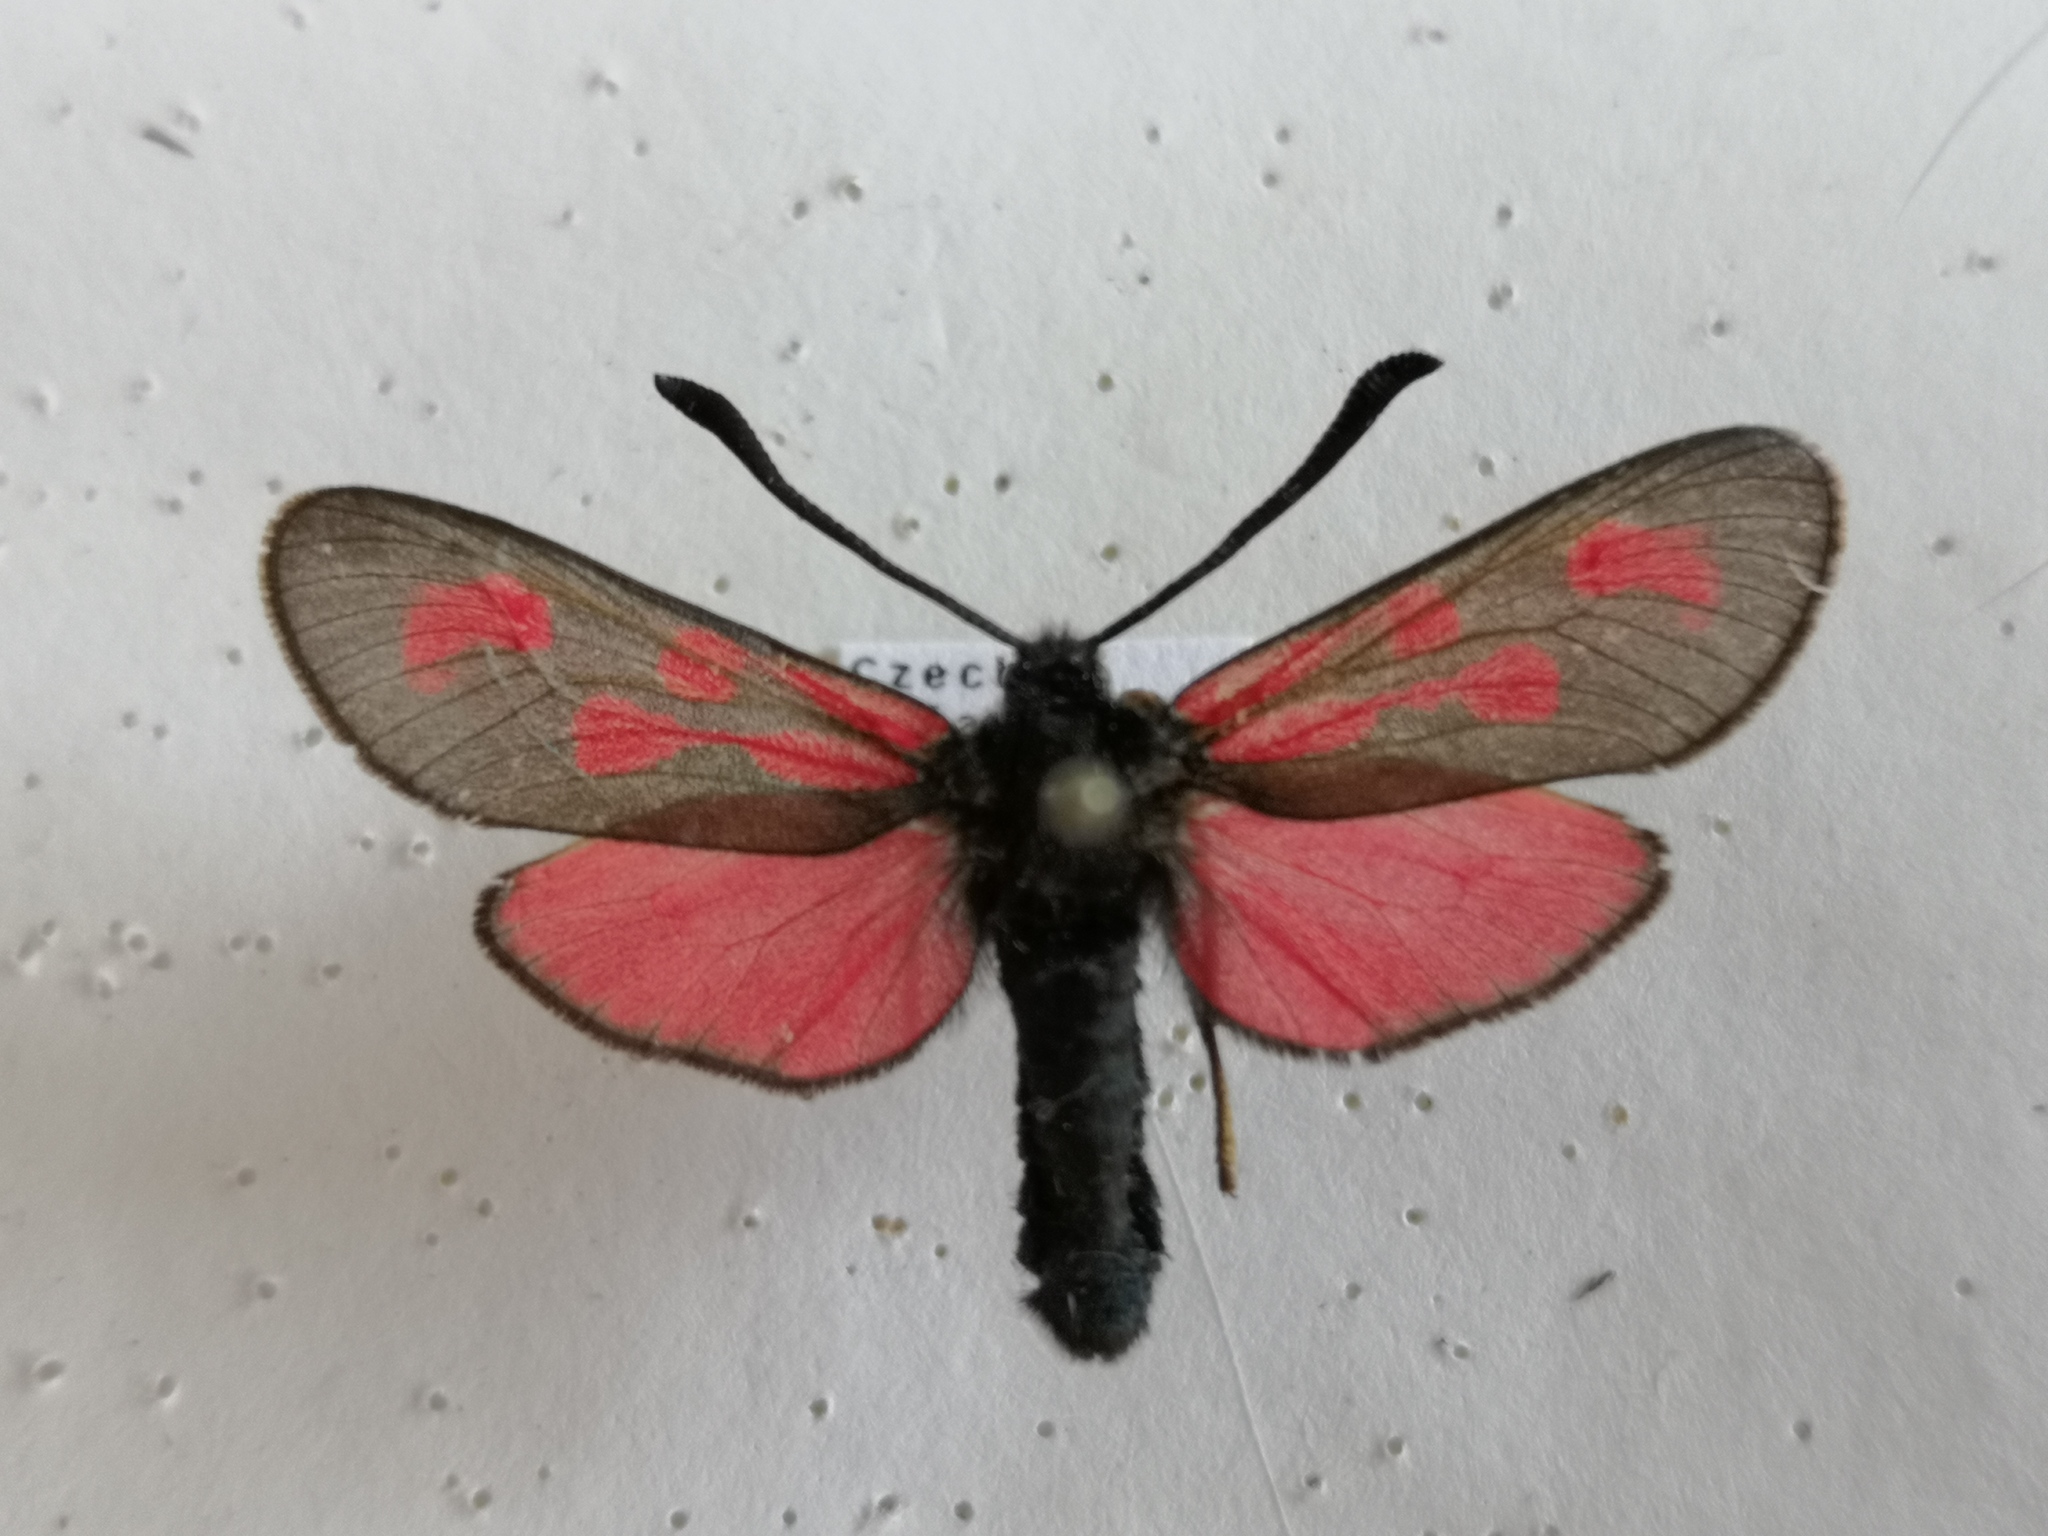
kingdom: Animalia
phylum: Arthropoda
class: Insecta
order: Lepidoptera
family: Zygaenidae
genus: Zygaena
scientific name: Zygaena loti
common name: Slender scotch burnet
